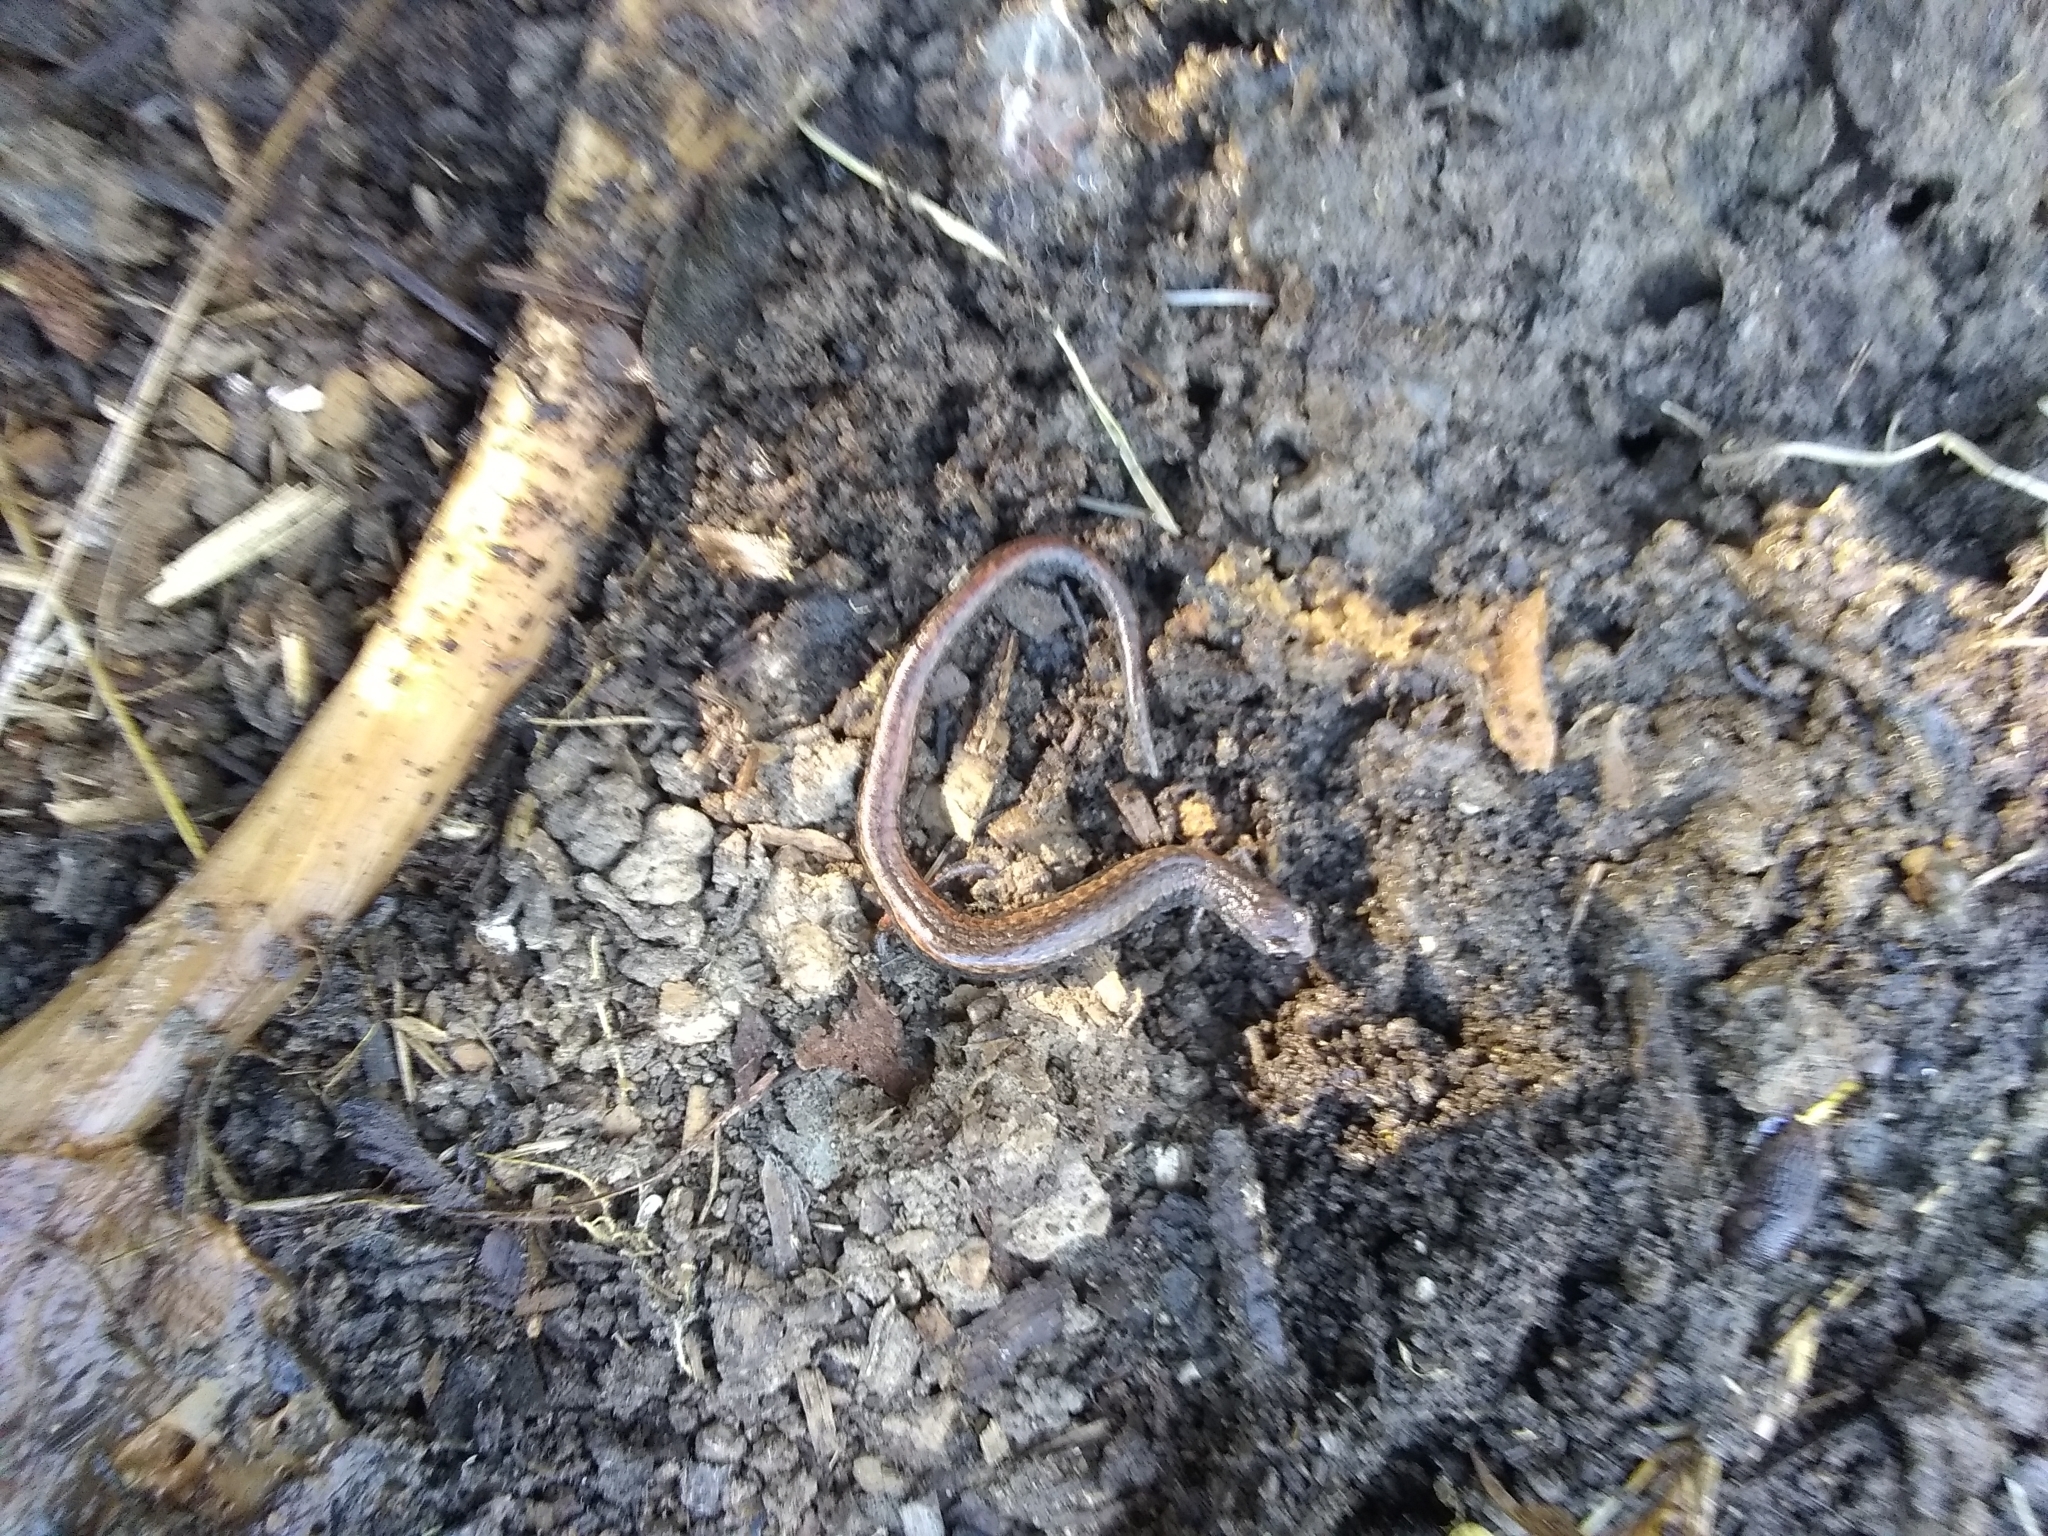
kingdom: Animalia
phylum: Chordata
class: Amphibia
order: Caudata
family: Plethodontidae
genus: Batrachoseps
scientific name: Batrachoseps attenuatus
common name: California slender salamander
